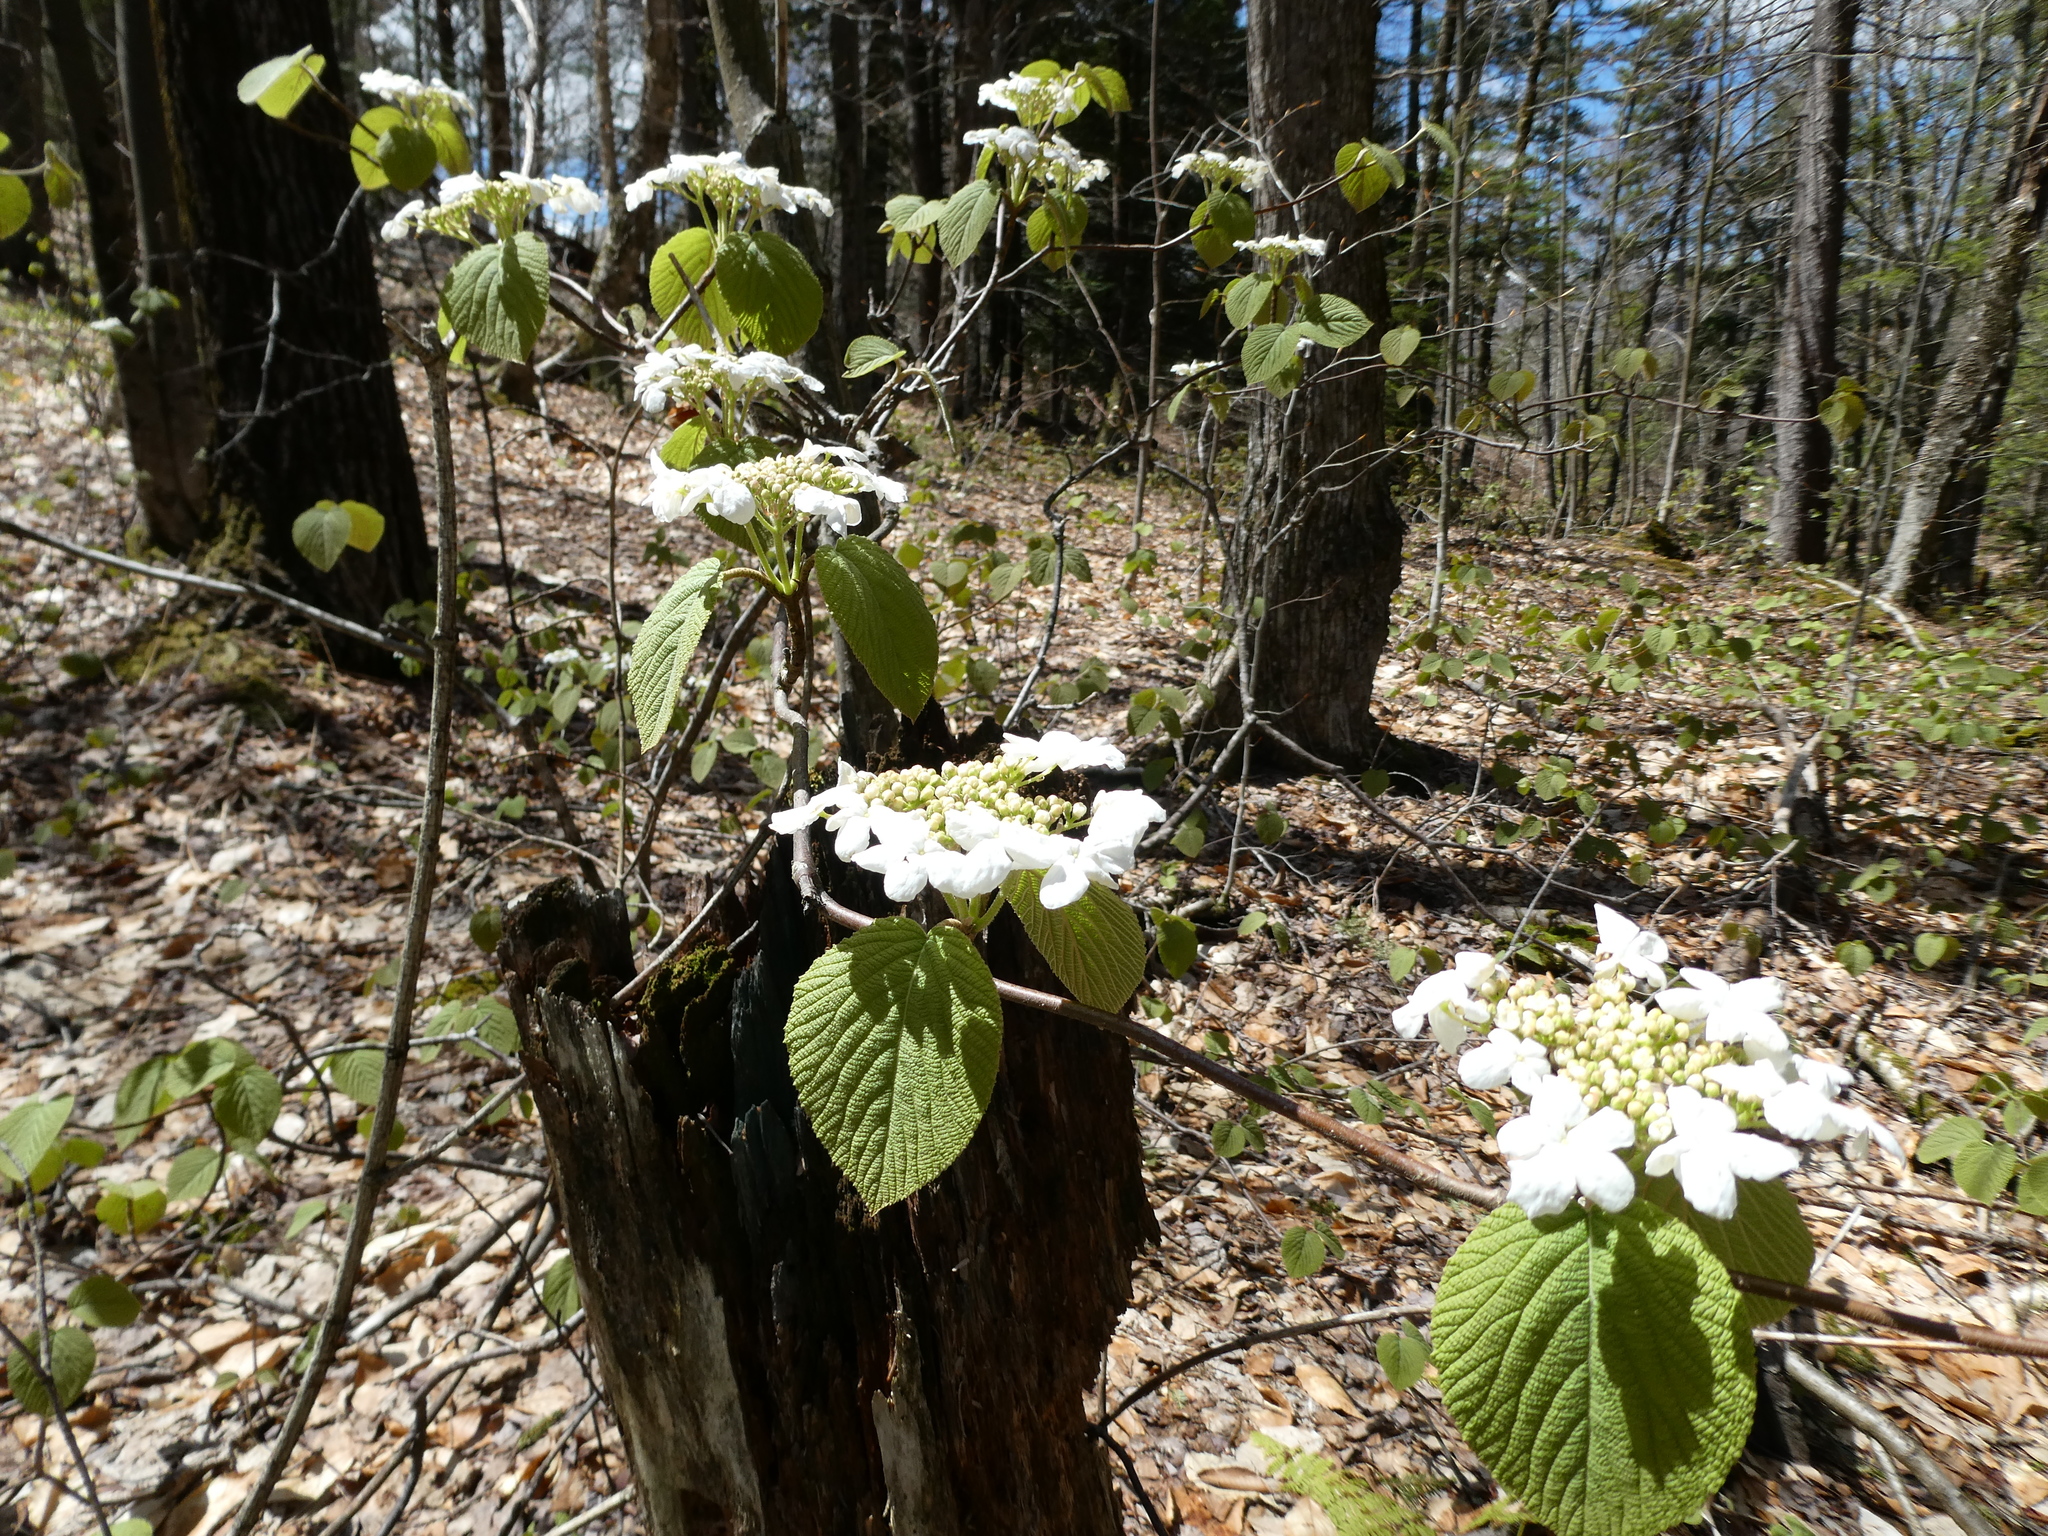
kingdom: Plantae
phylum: Tracheophyta
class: Magnoliopsida
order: Dipsacales
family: Viburnaceae
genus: Viburnum
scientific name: Viburnum lantanoides
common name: Hobblebush
